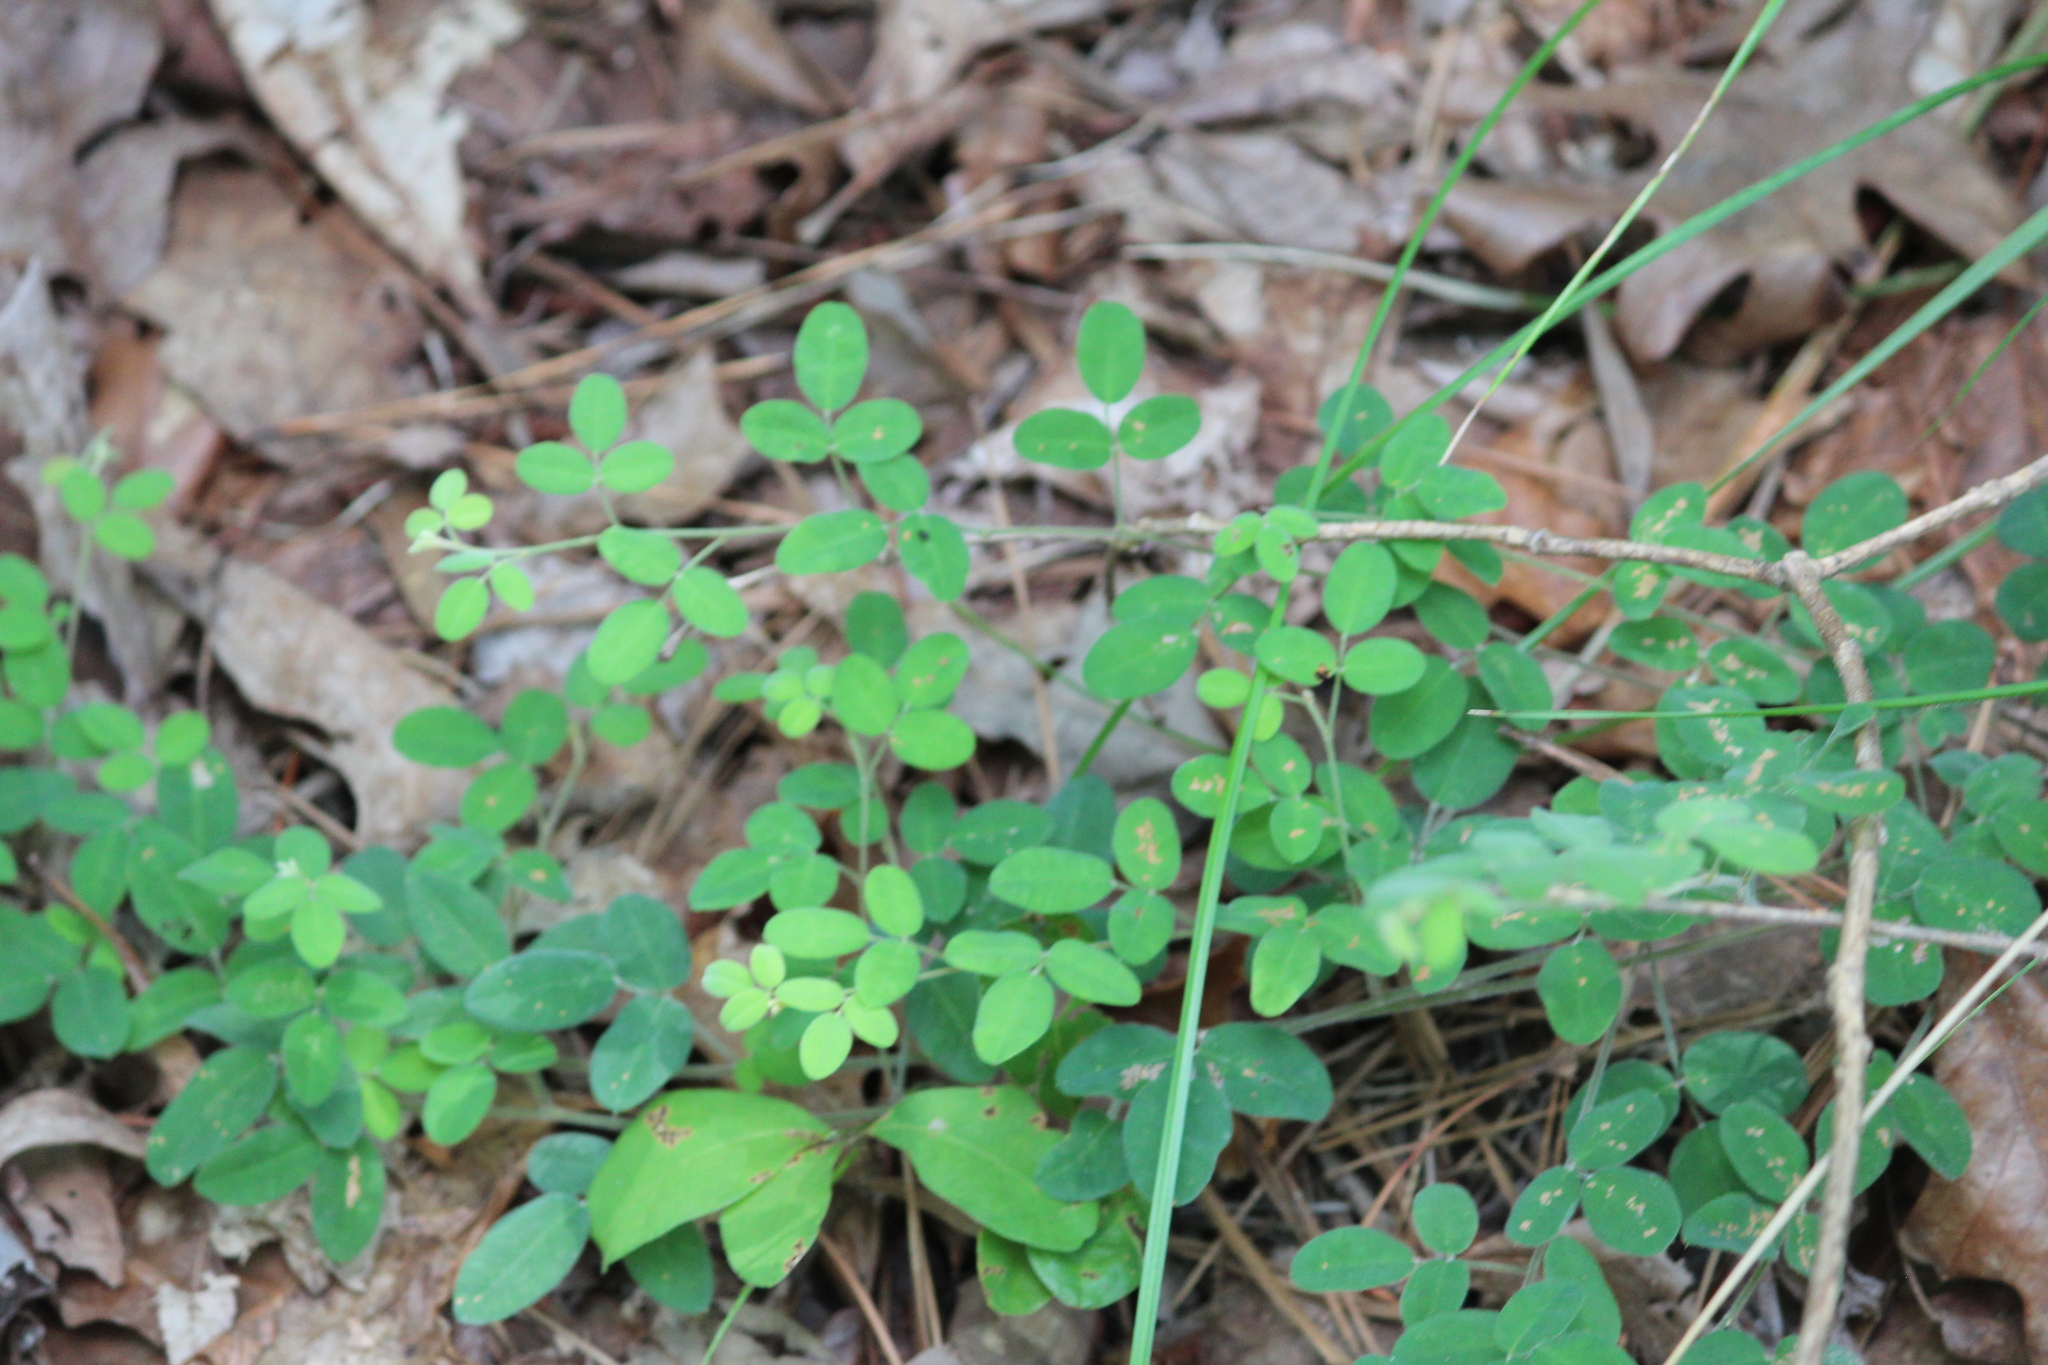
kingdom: Plantae
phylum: Tracheophyta
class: Magnoliopsida
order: Fabales
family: Fabaceae
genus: Lespedeza
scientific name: Lespedeza procumbens
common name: Downy trailing bush-clover
